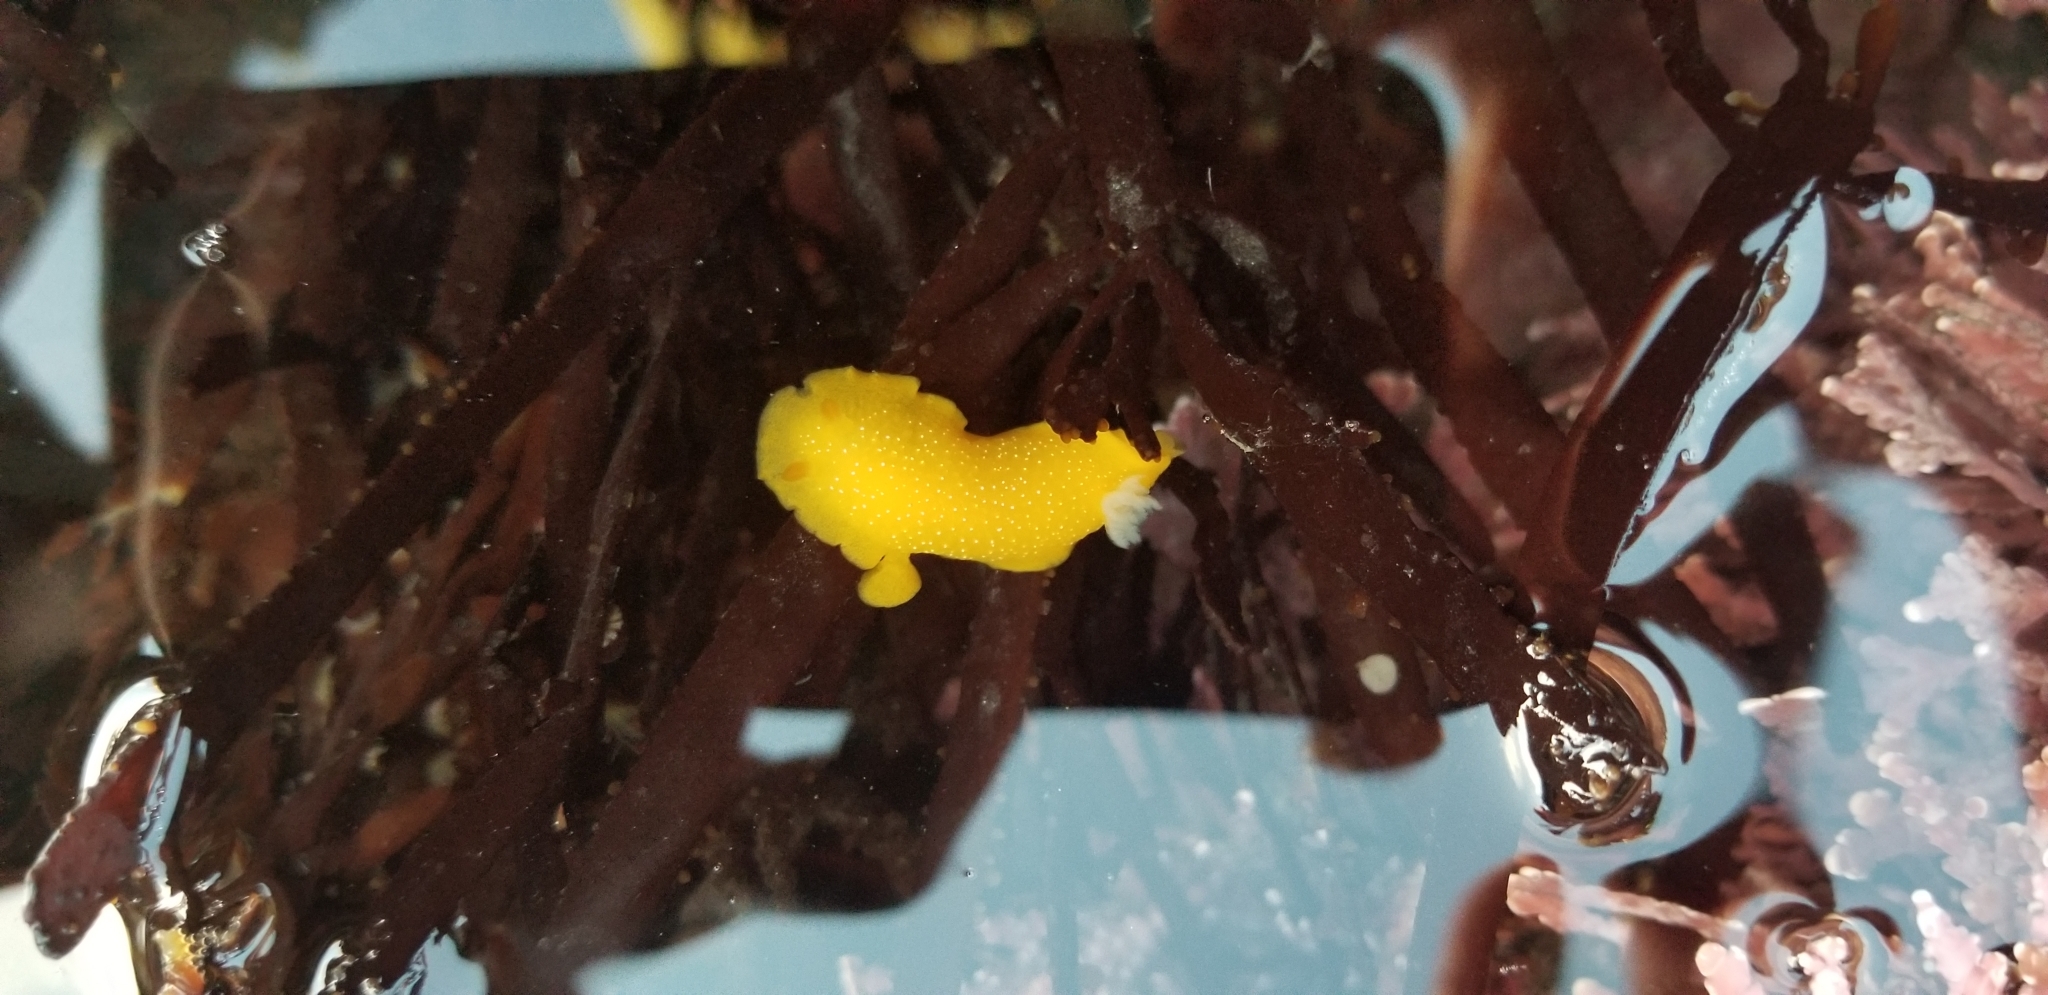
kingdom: Animalia
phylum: Mollusca
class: Gastropoda
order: Nudibranchia
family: Dendrodorididae
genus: Doriopsilla
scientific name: Doriopsilla fulva
